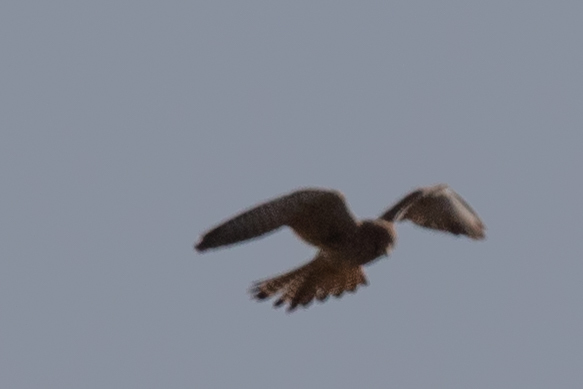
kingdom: Animalia
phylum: Chordata
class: Aves
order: Falconiformes
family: Falconidae
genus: Falco
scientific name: Falco tinnunculus
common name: Common kestrel
